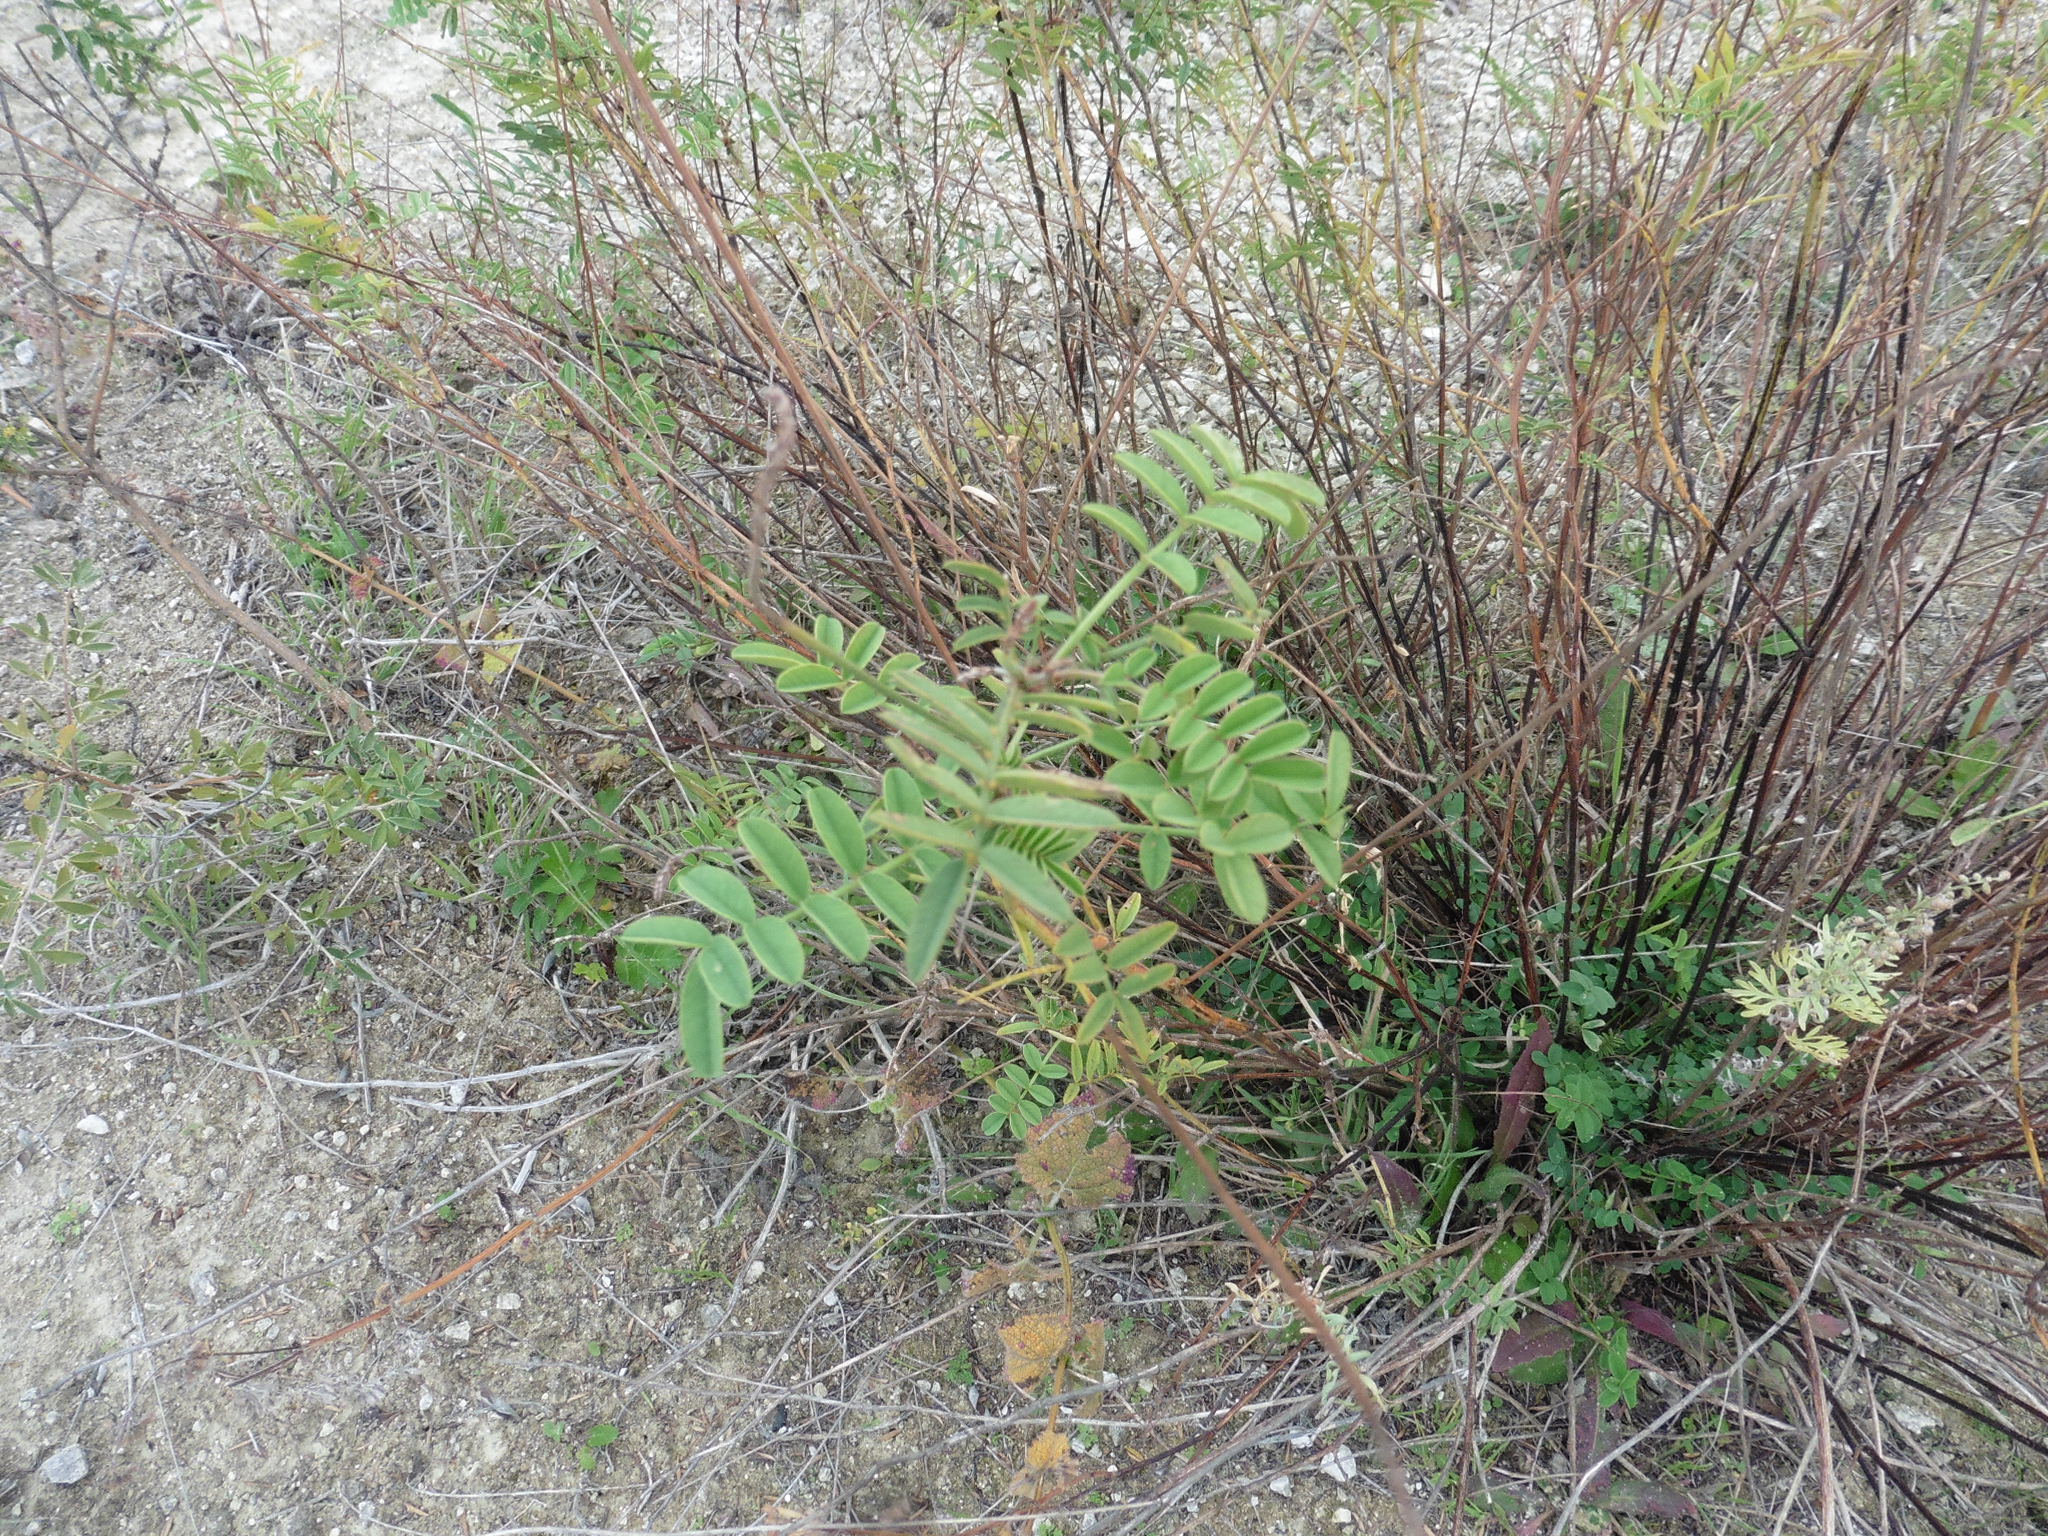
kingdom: Plantae
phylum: Tracheophyta
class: Magnoliopsida
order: Fabales
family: Fabaceae
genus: Onobrychis
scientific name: Onobrychis viciifolia
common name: Sainfoin
